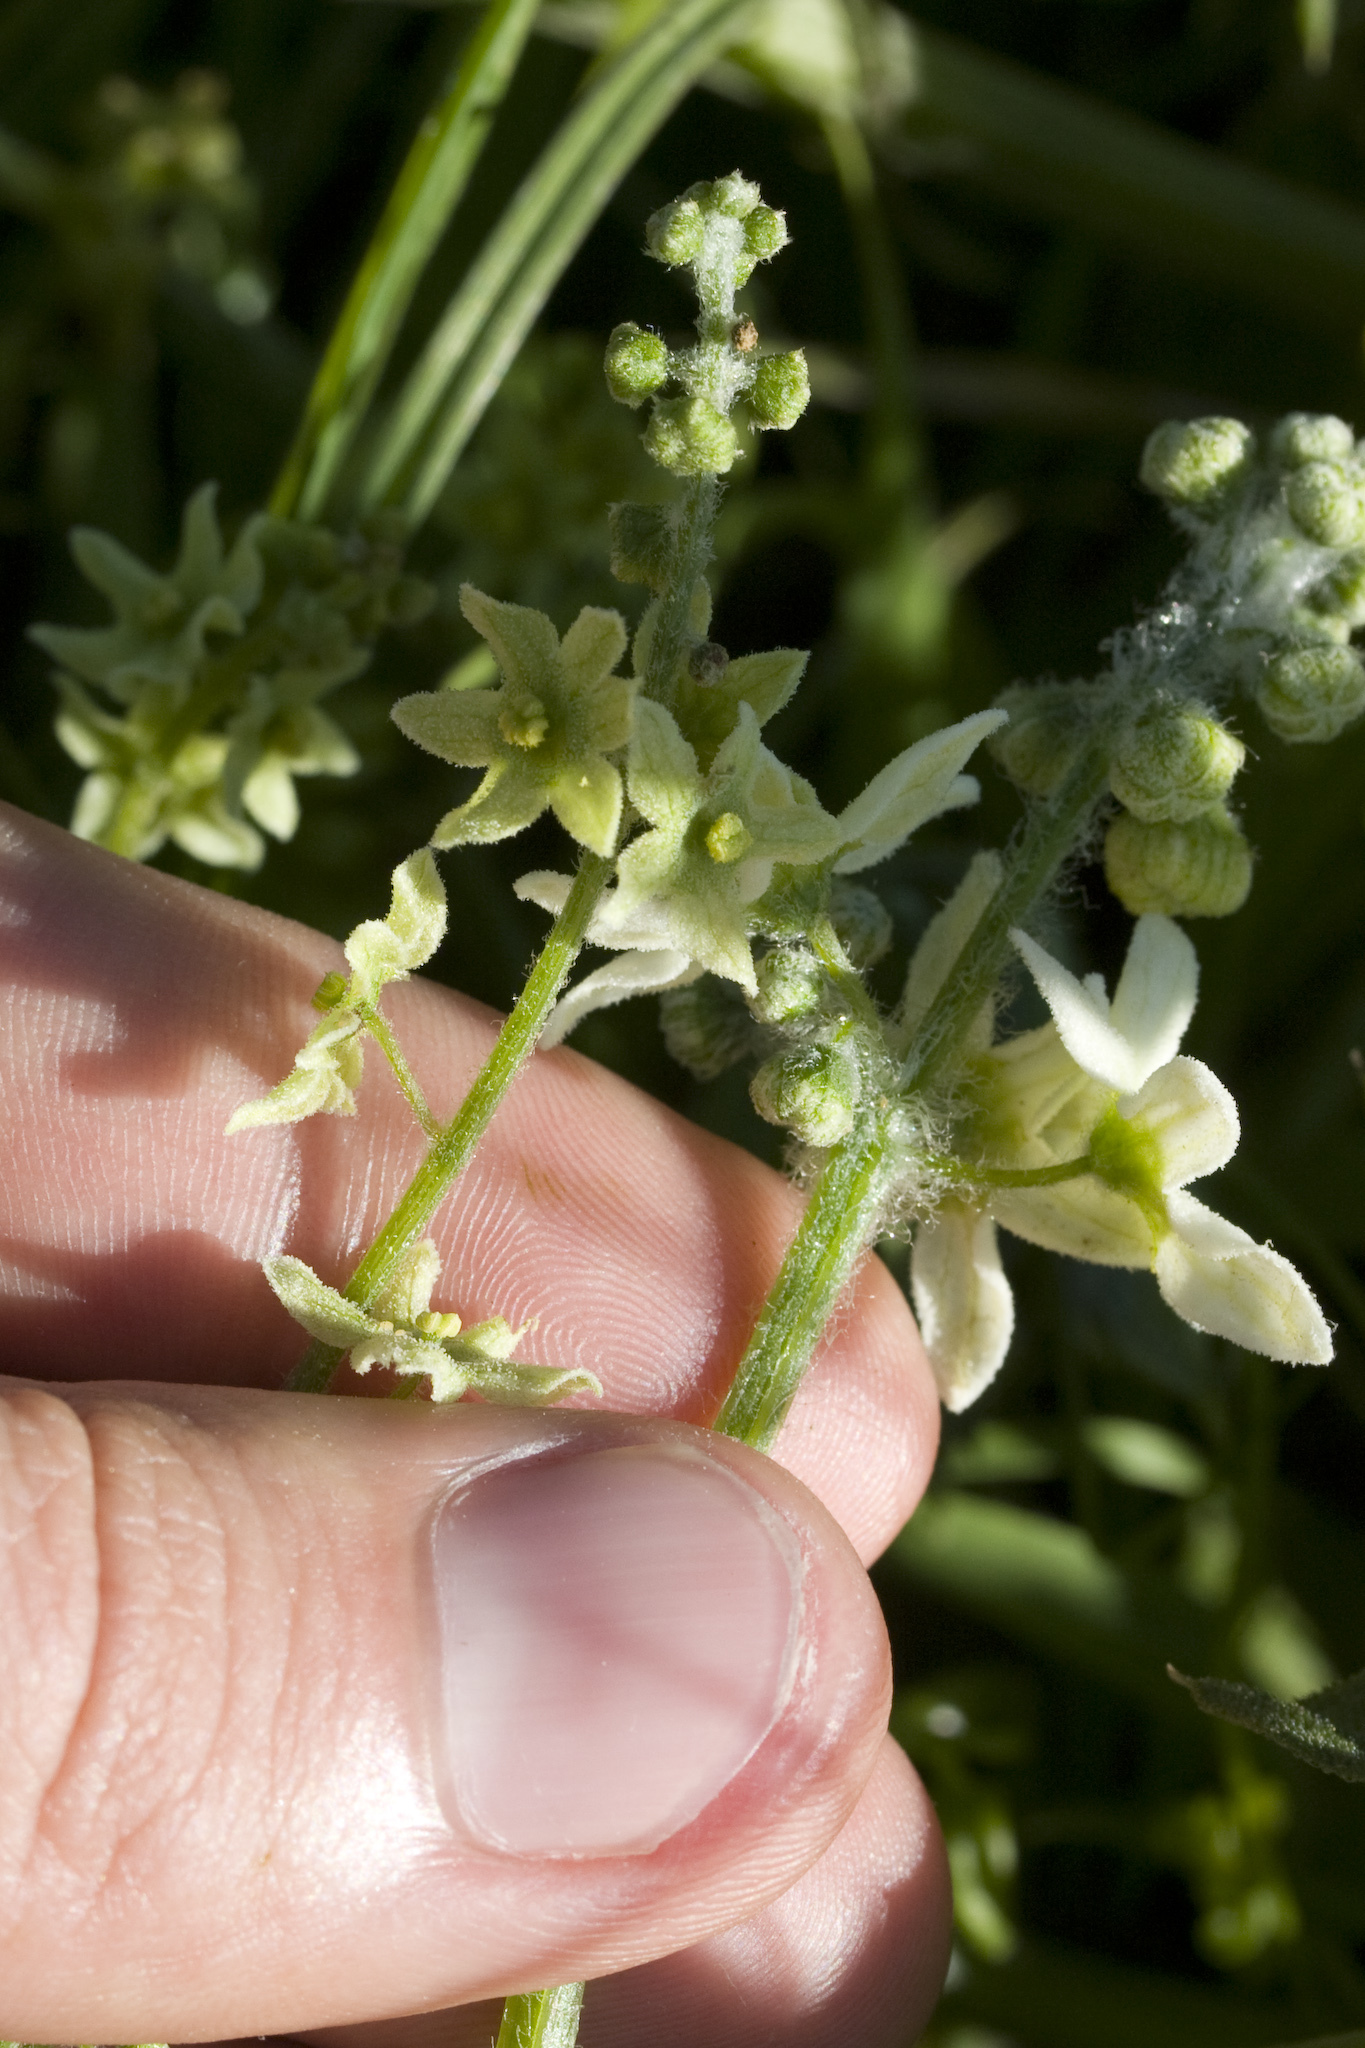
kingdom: Plantae
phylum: Tracheophyta
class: Magnoliopsida
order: Cucurbitales
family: Cucurbitaceae
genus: Marah
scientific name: Marah fabacea
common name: California manroot
